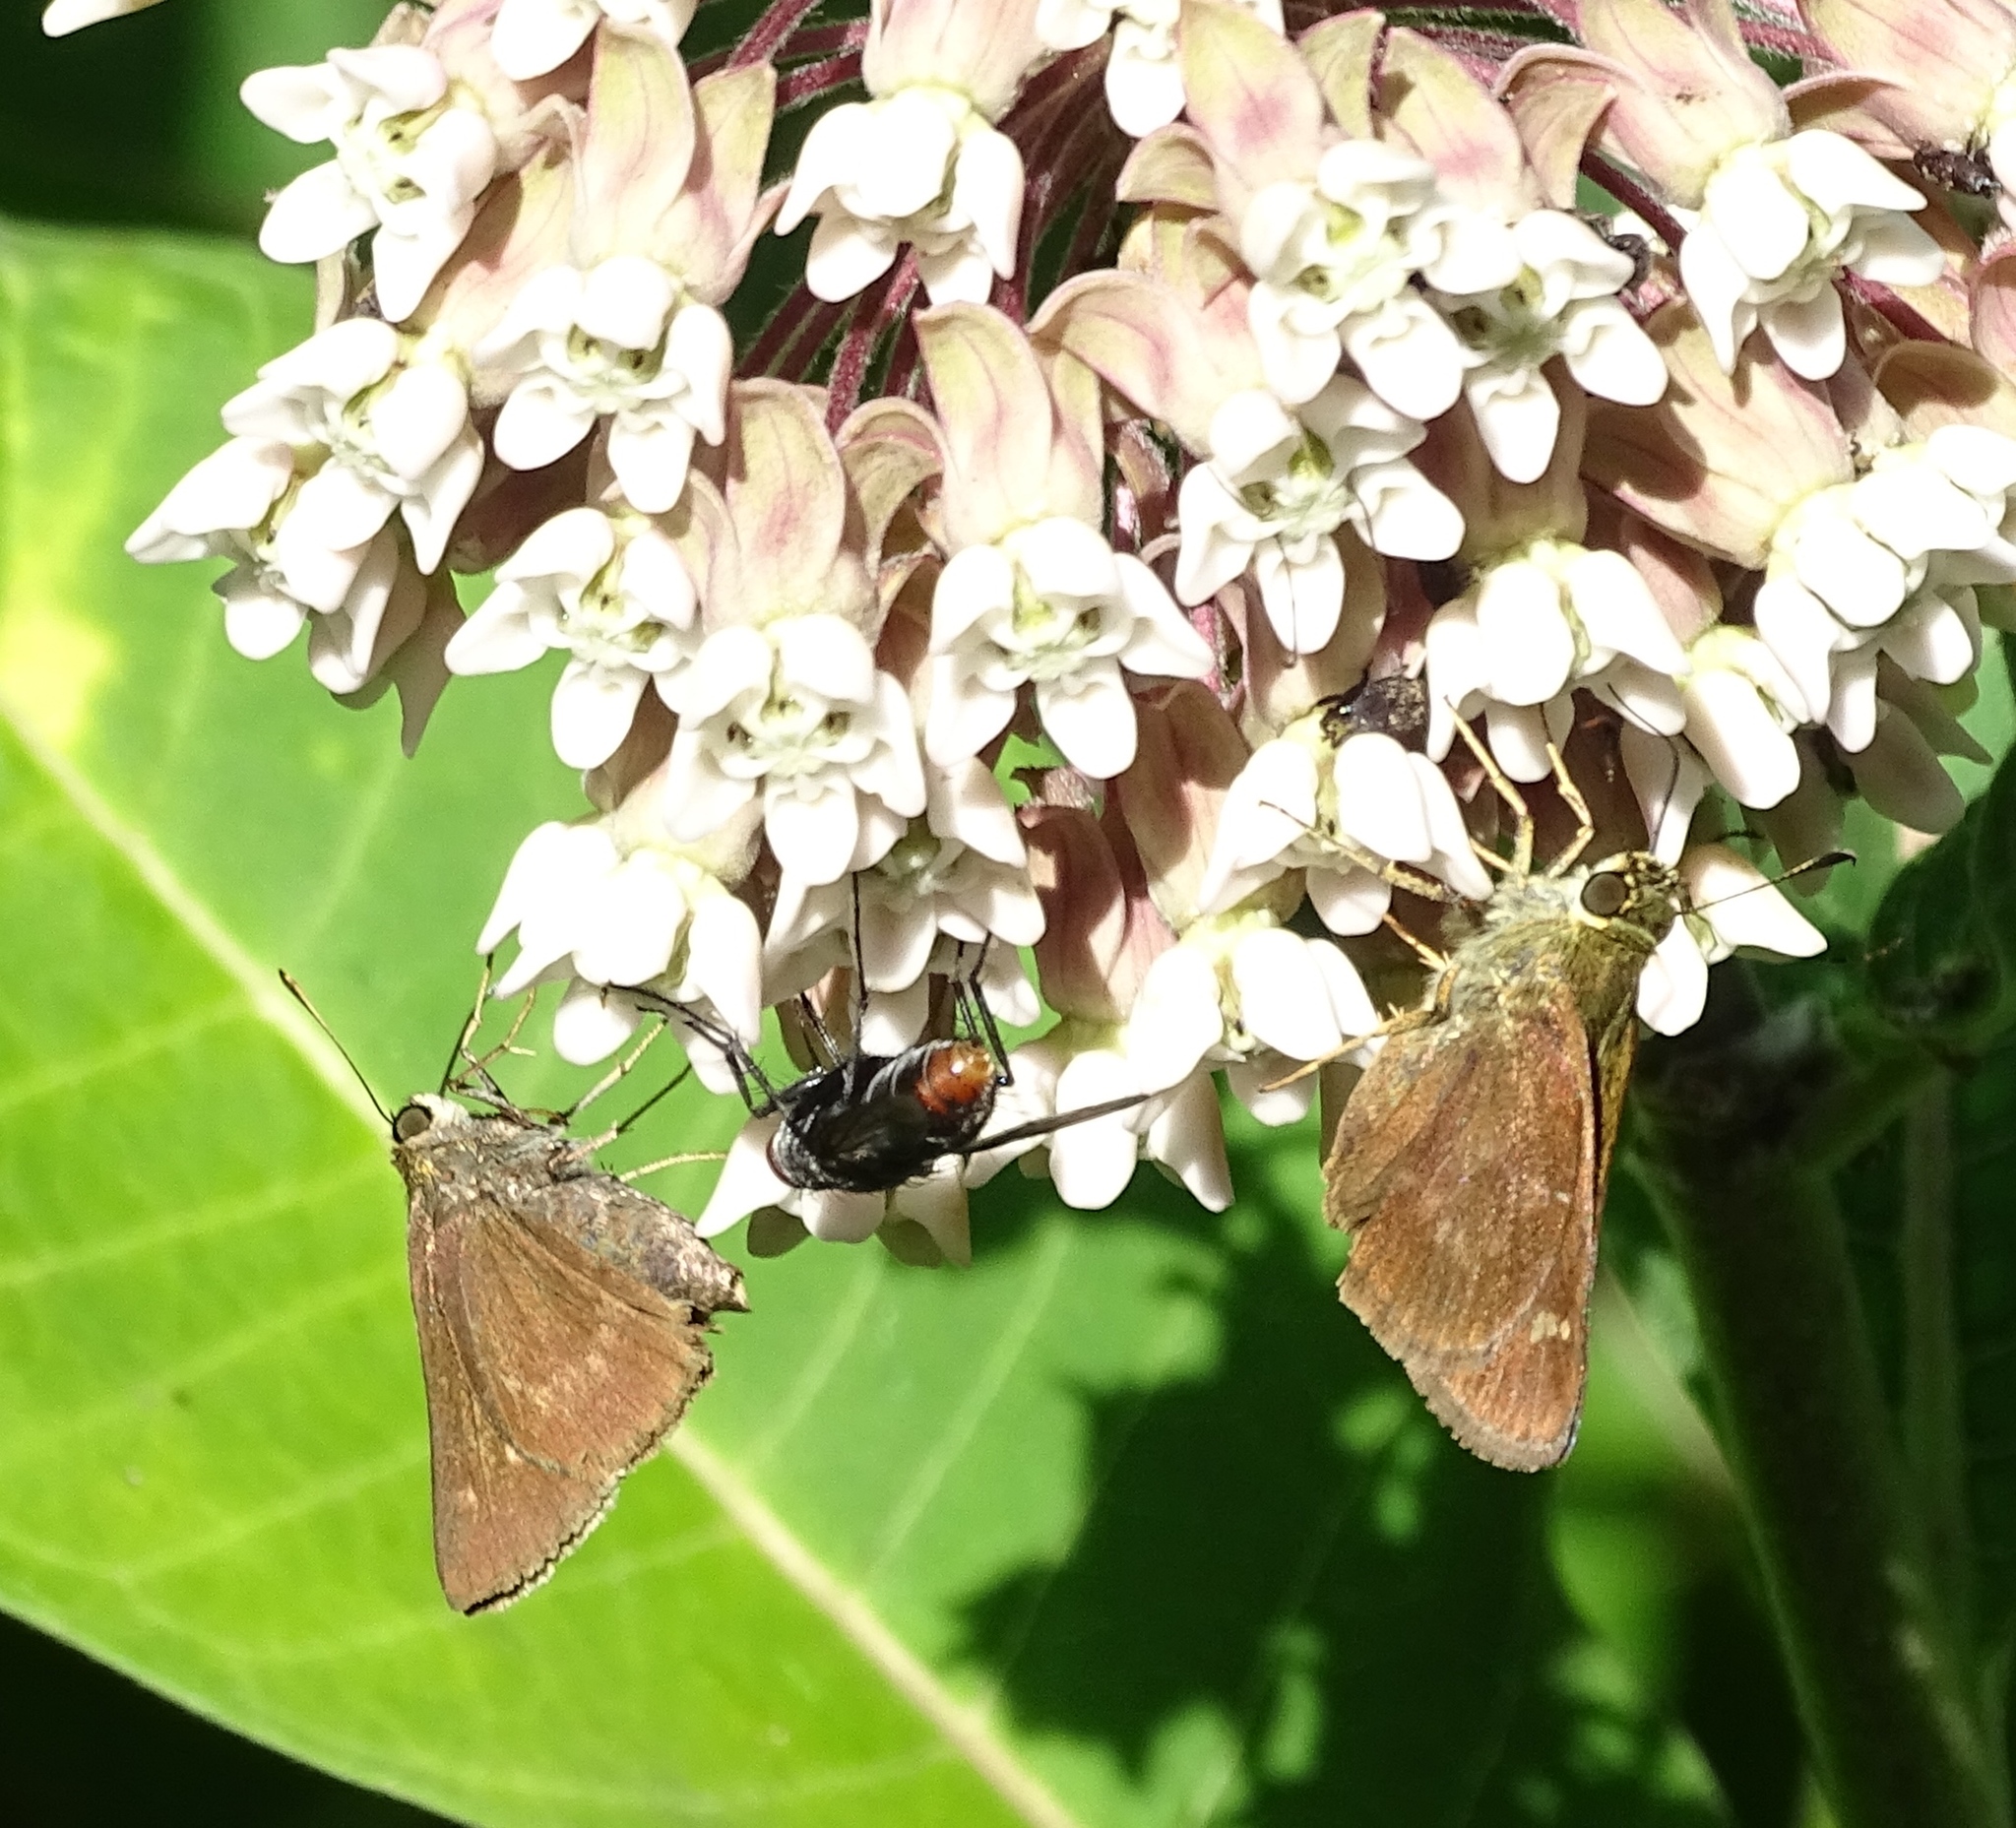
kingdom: Animalia
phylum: Arthropoda
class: Insecta
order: Lepidoptera
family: Hesperiidae
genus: Vernia
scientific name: Vernia verna
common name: Little glassywing
